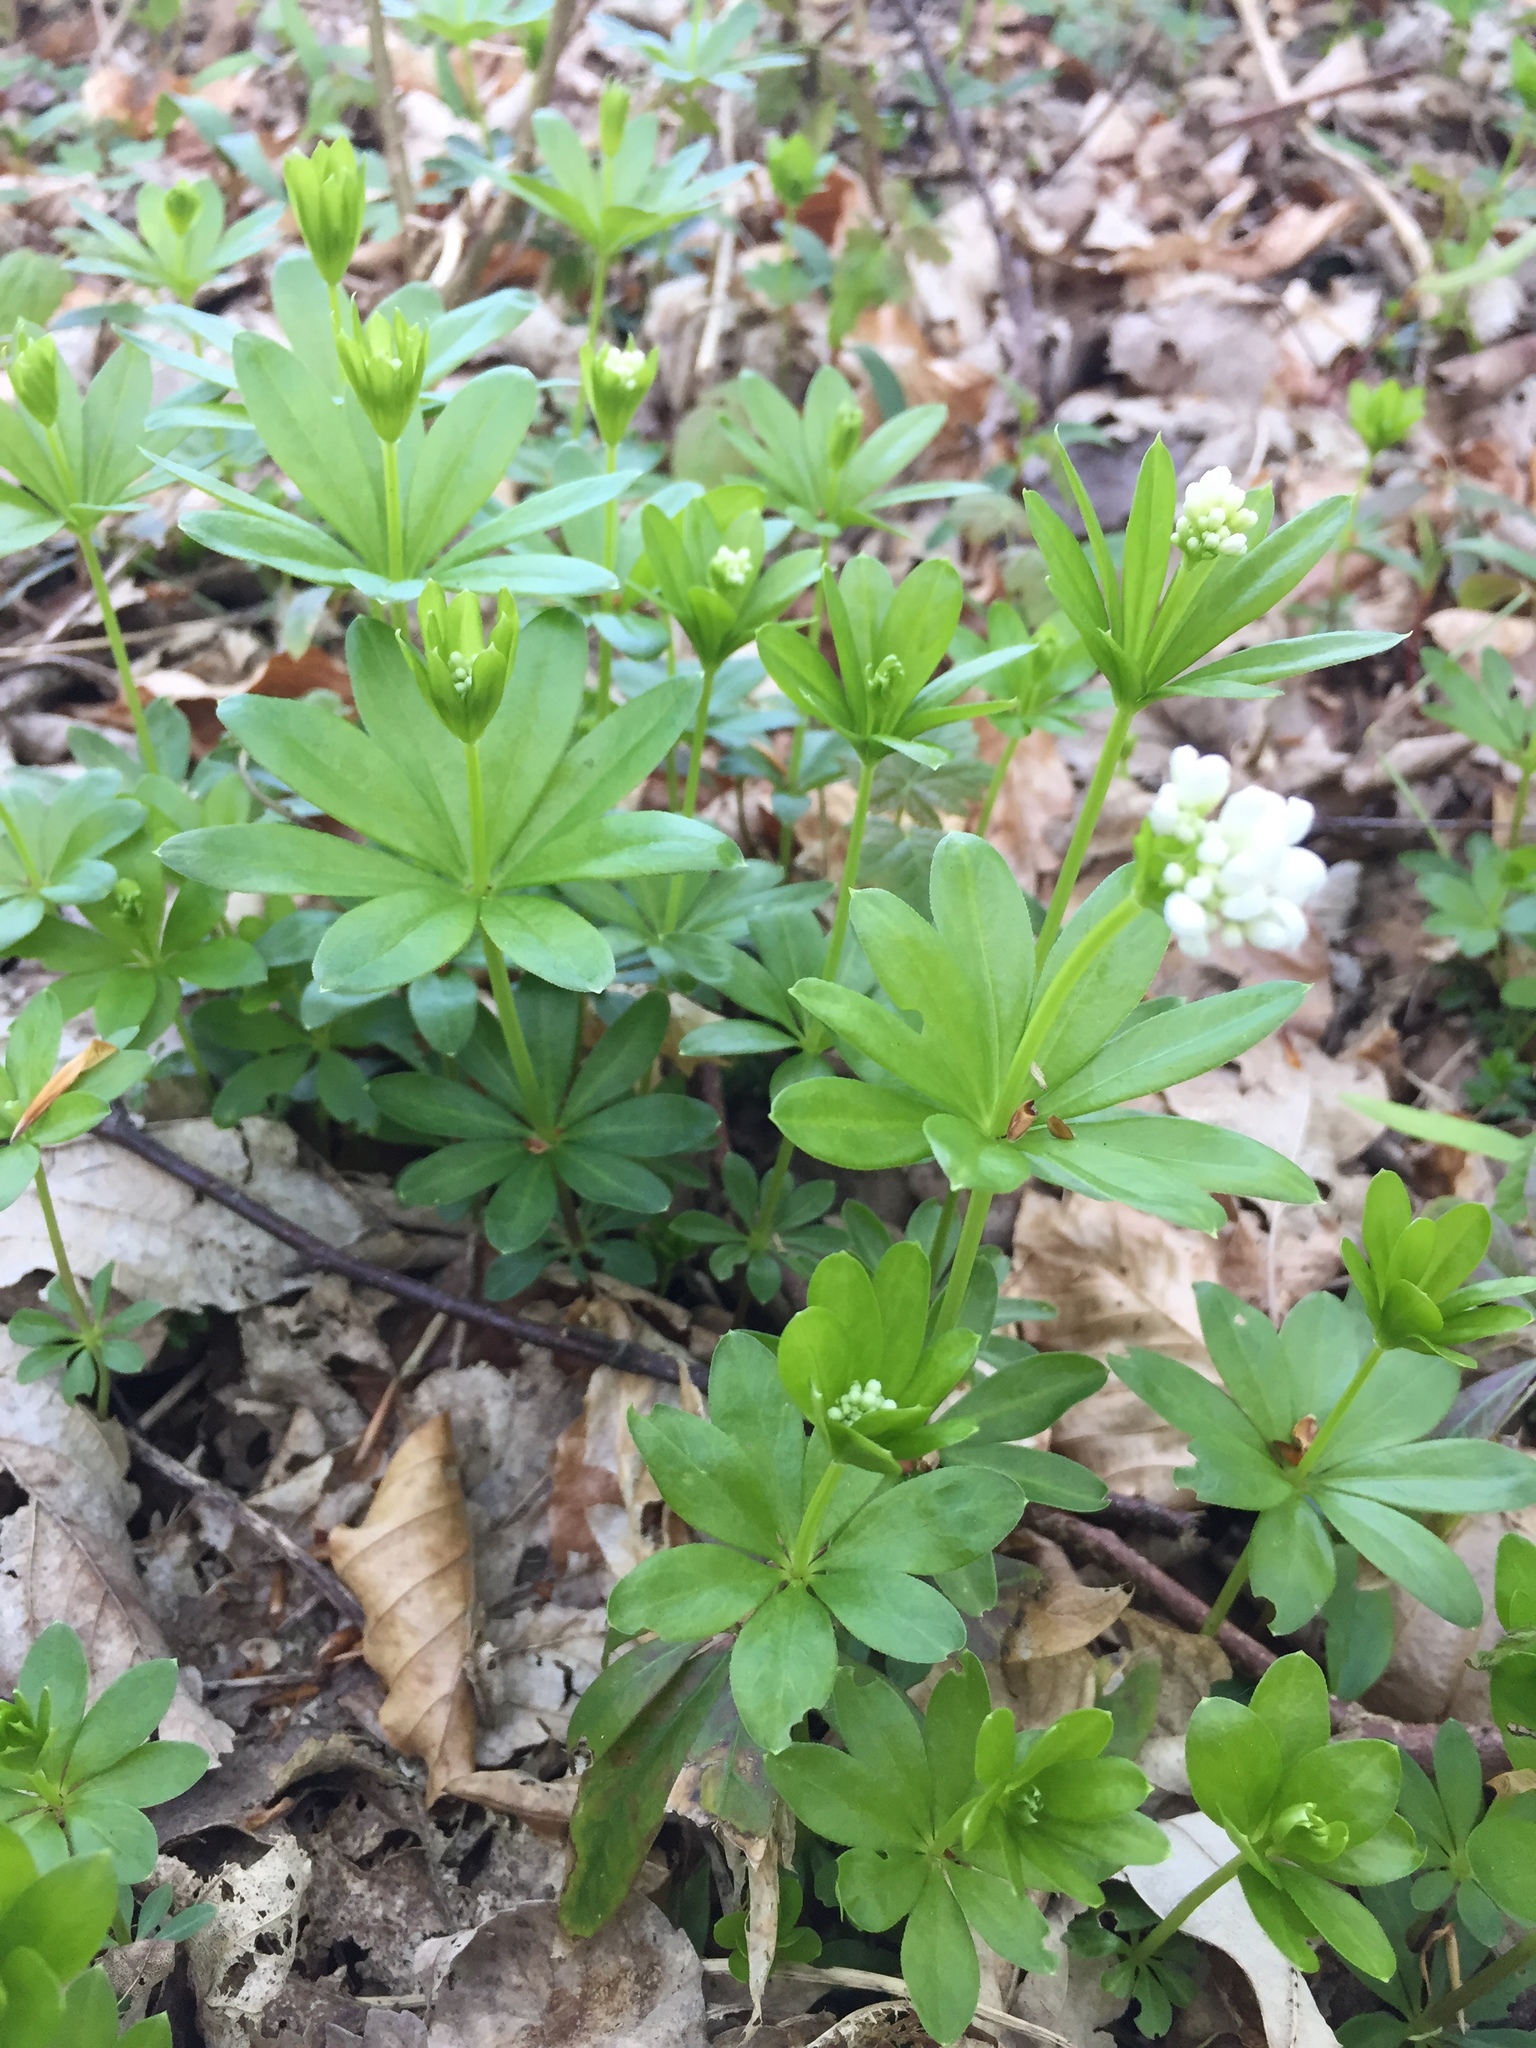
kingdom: Plantae
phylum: Tracheophyta
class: Magnoliopsida
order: Gentianales
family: Rubiaceae
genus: Galium
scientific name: Galium odoratum
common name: Sweet woodruff
